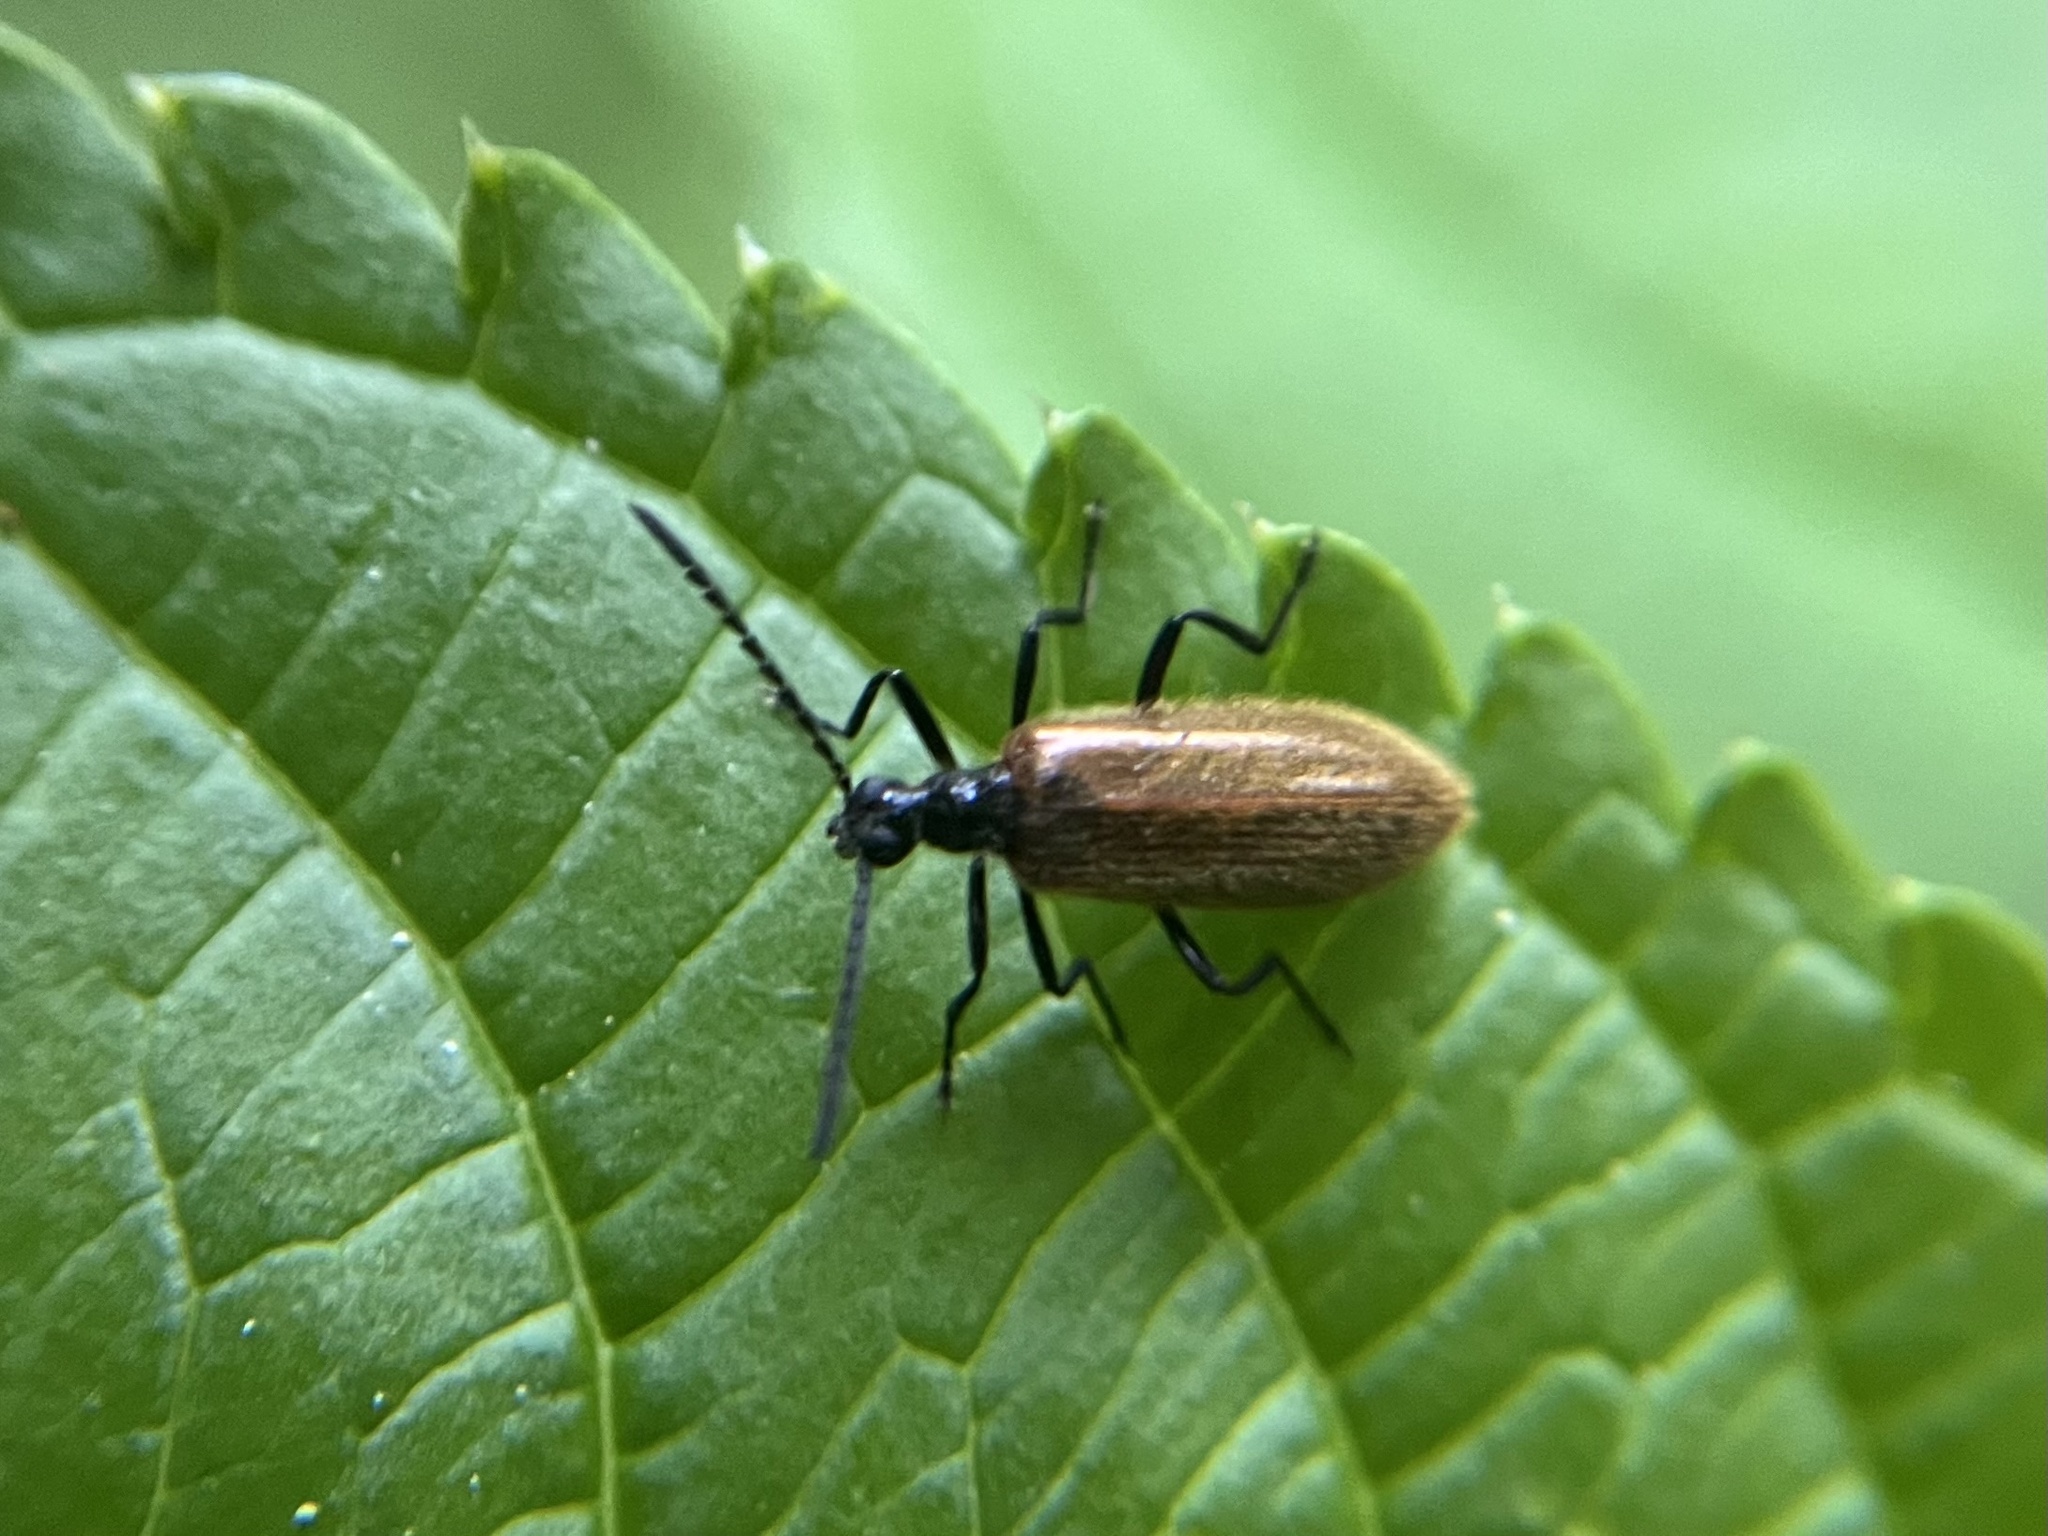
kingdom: Animalia
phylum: Arthropoda
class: Insecta
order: Coleoptera
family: Tenebrionidae
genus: Lagria
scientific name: Lagria hirta
